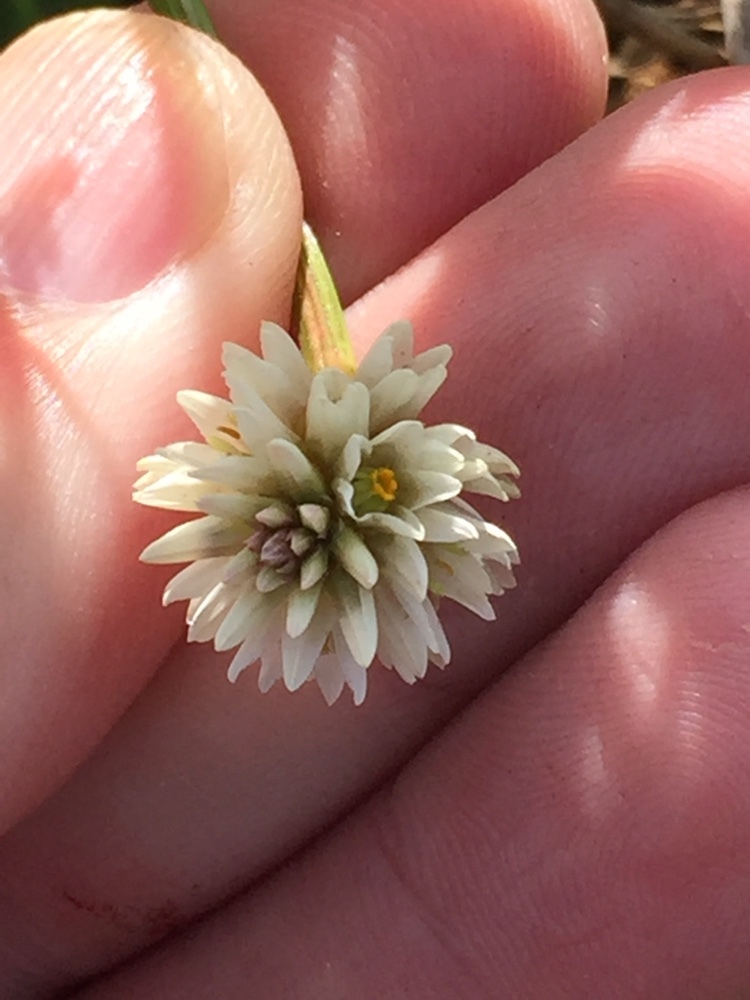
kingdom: Plantae
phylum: Tracheophyta
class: Magnoliopsida
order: Caryophyllales
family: Amaranthaceae
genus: Alternanthera
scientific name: Alternanthera philoxeroides
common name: Alligatorweed
